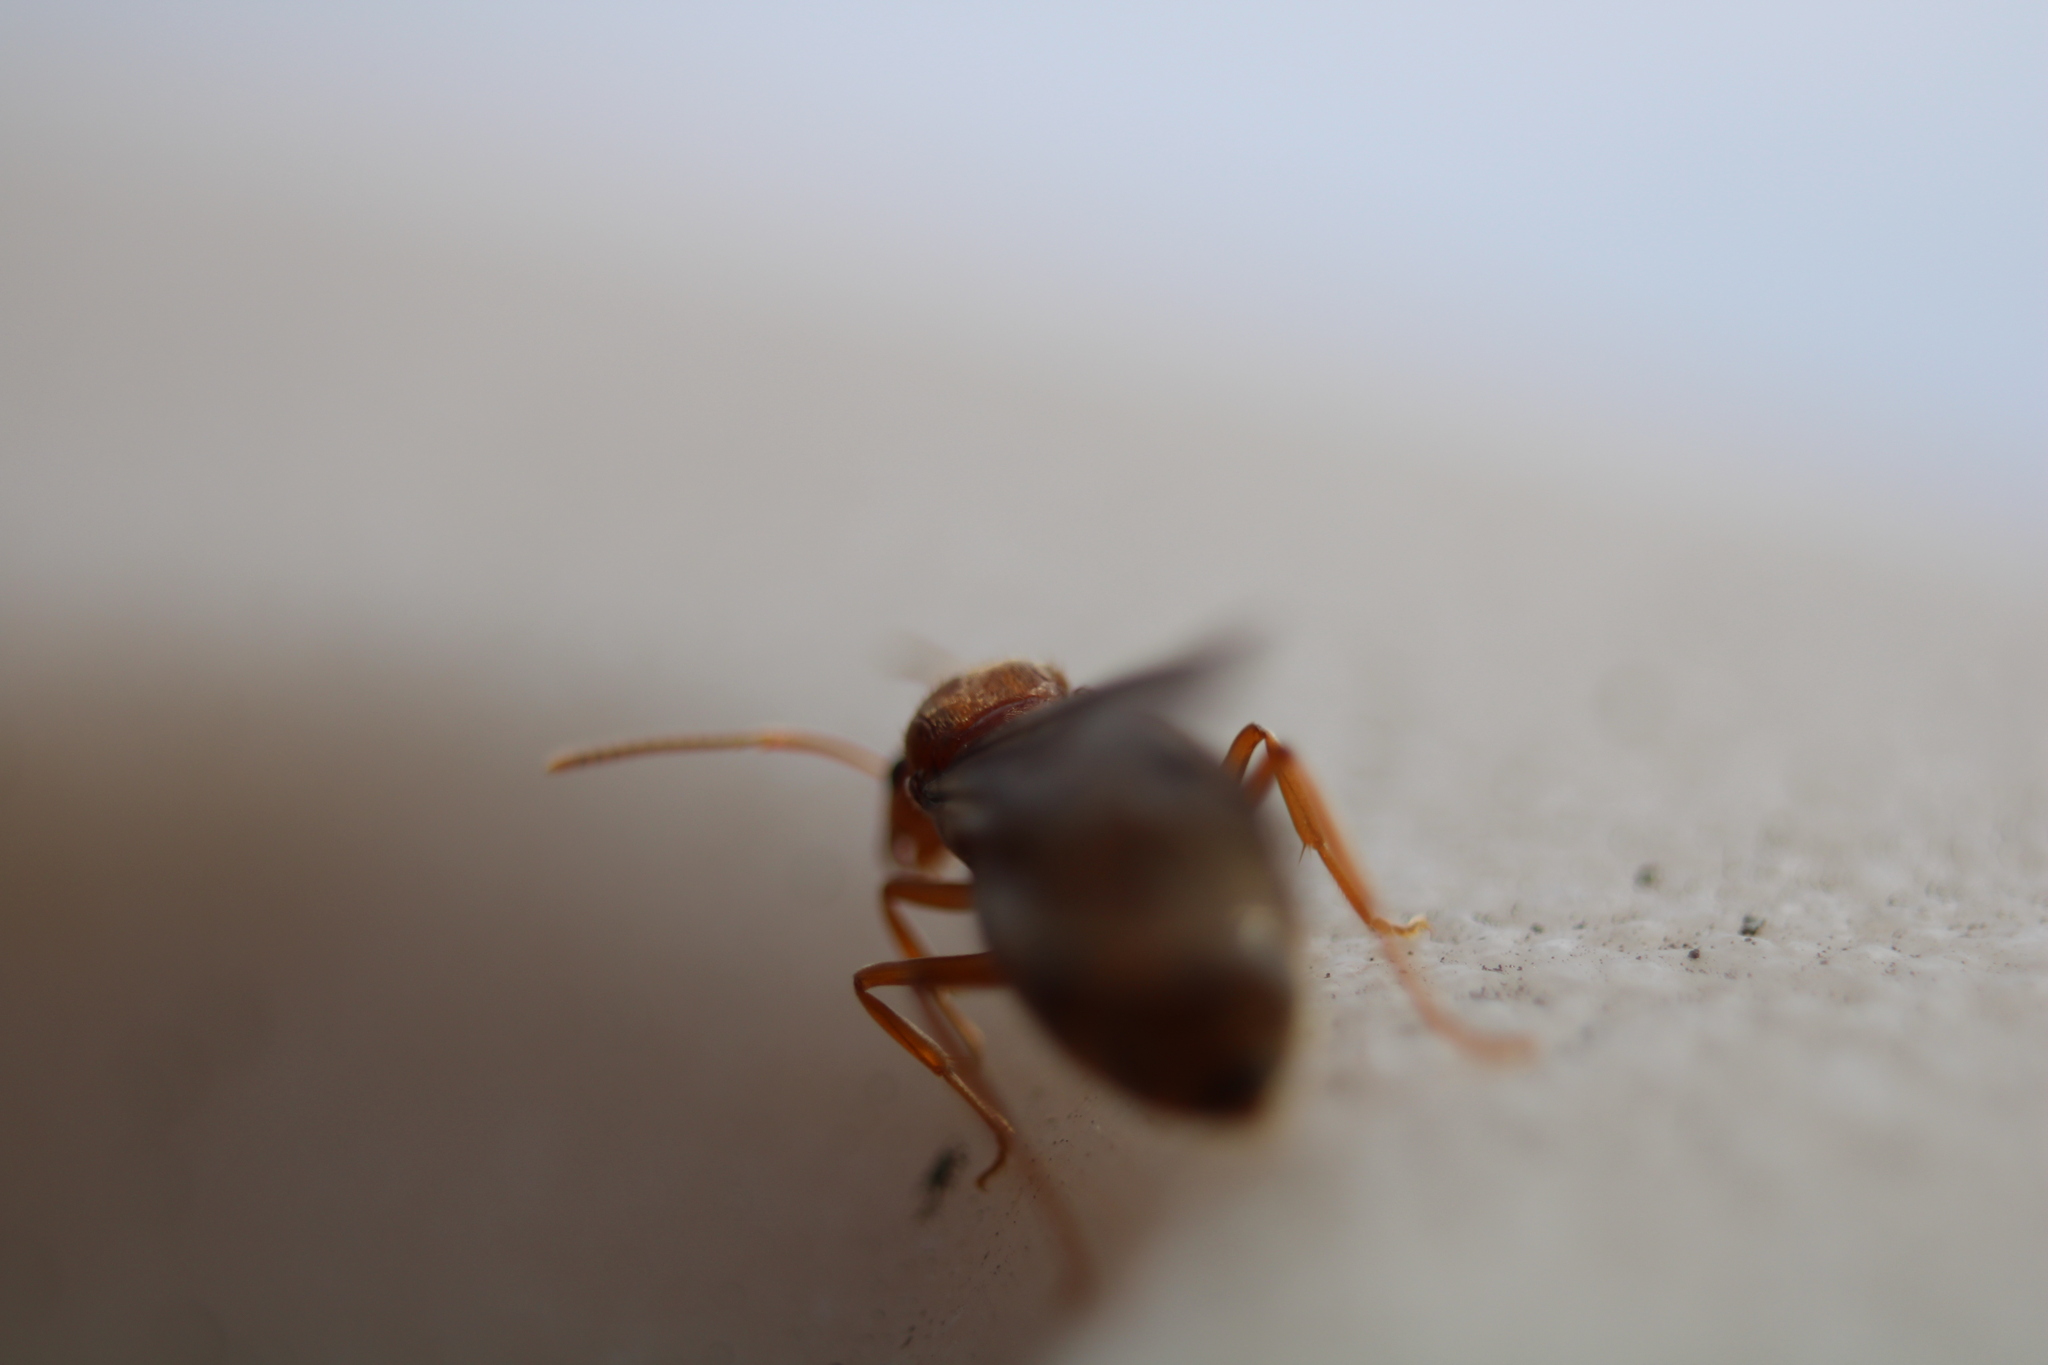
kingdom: Animalia
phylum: Arthropoda
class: Insecta
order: Hymenoptera
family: Formicidae
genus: Prenolepis
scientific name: Prenolepis imparis
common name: Small honey ant
